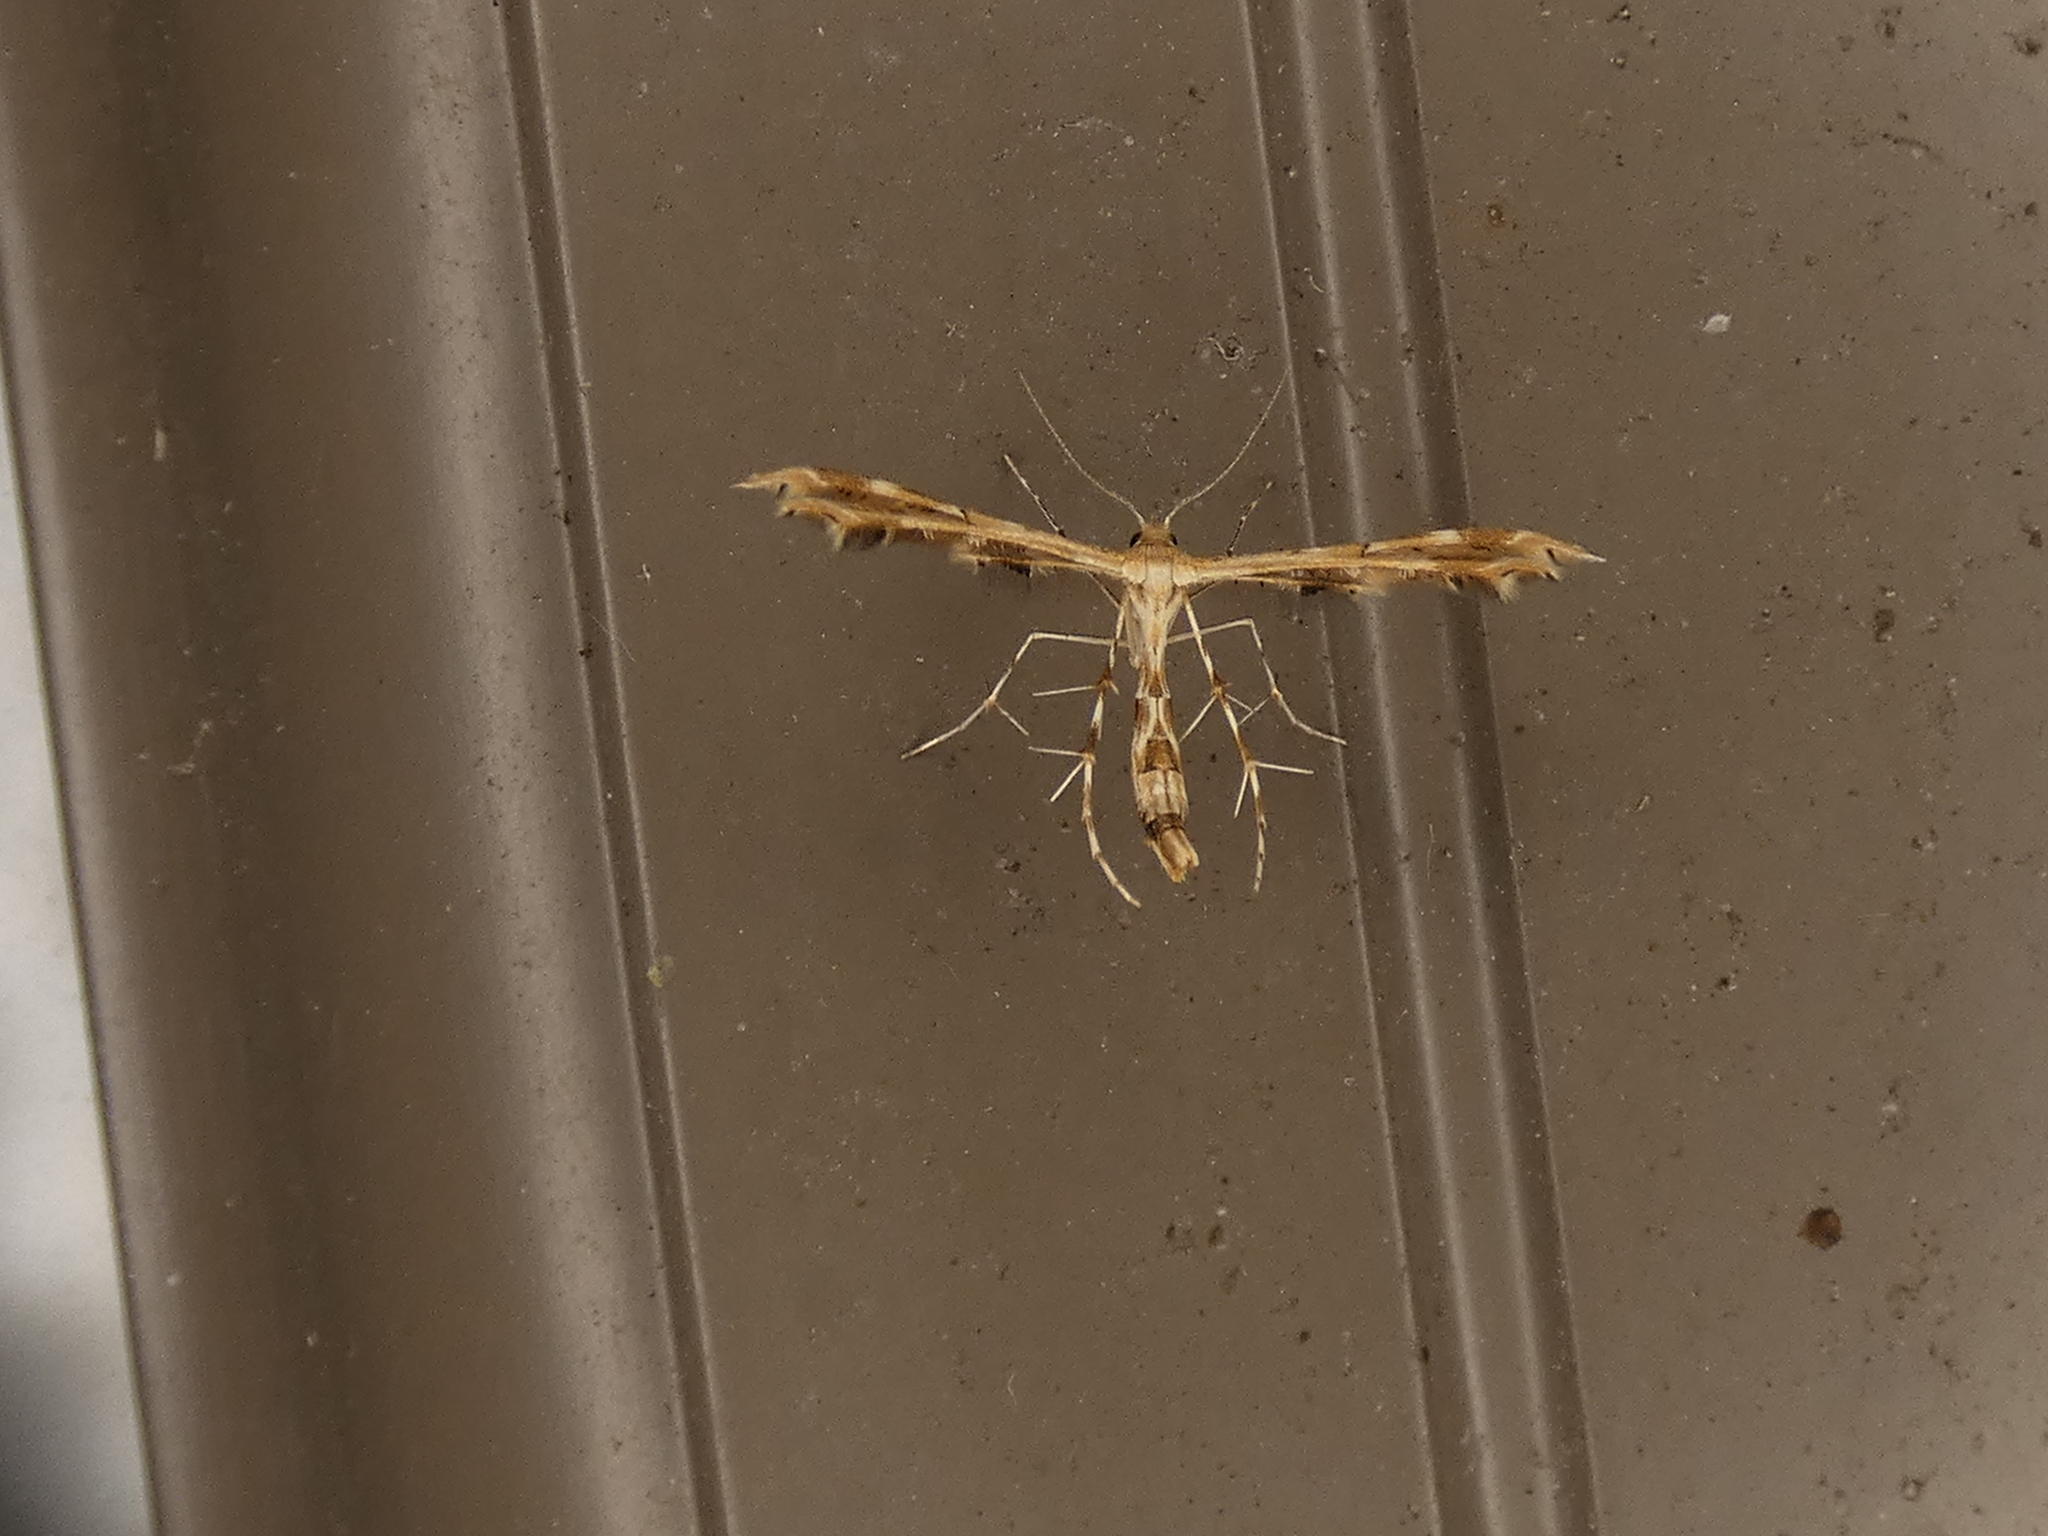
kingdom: Animalia
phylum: Arthropoda
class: Insecta
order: Lepidoptera
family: Pterophoridae
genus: Sphenarches
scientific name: Sphenarches anisodactylus
